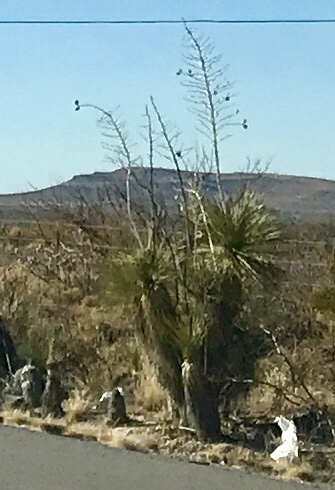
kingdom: Plantae
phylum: Tracheophyta
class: Liliopsida
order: Asparagales
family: Asparagaceae
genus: Yucca
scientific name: Yucca elata
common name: Palmella
